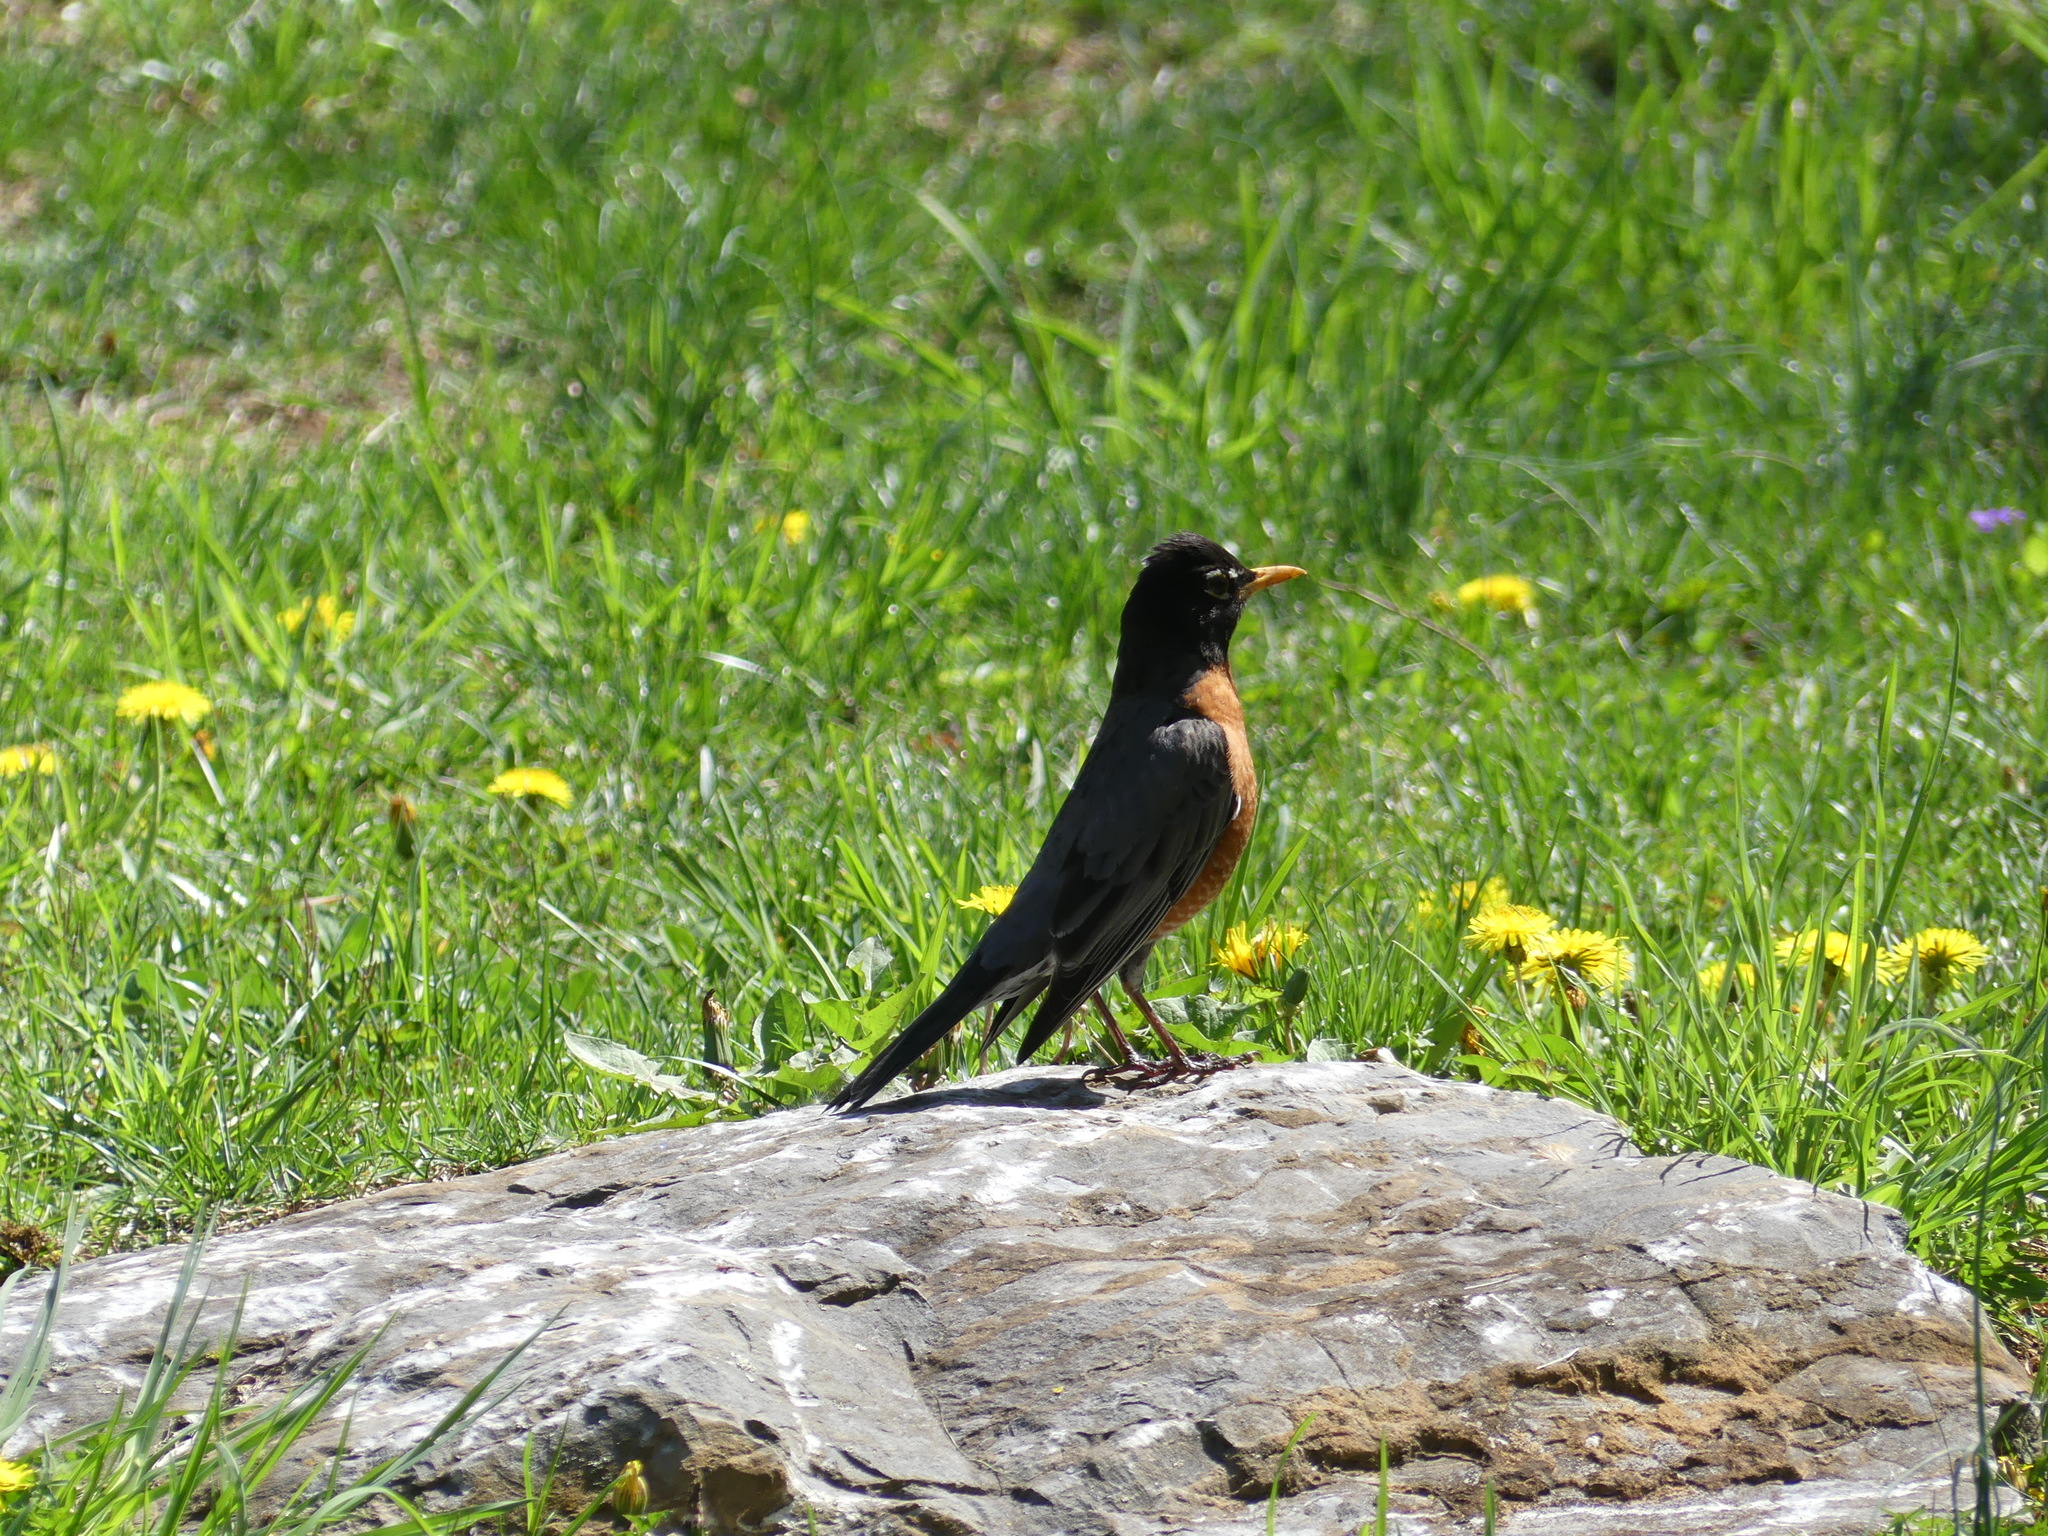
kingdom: Animalia
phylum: Chordata
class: Aves
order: Passeriformes
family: Turdidae
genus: Turdus
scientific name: Turdus migratorius
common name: American robin
